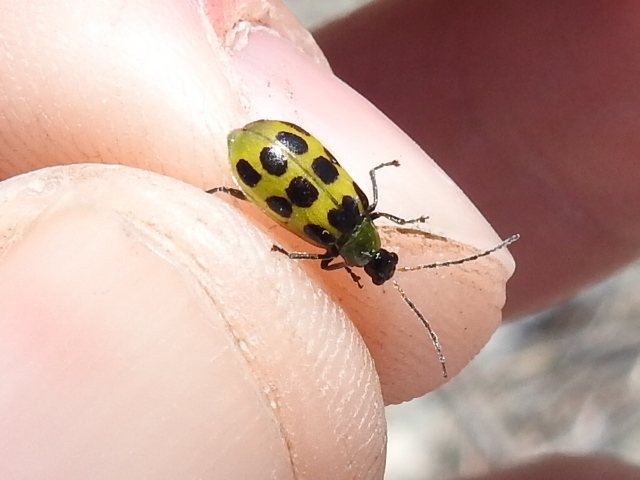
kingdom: Animalia
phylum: Arthropoda
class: Insecta
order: Coleoptera
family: Chrysomelidae
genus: Diabrotica
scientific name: Diabrotica undecimpunctata
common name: Spotted cucumber beetle
